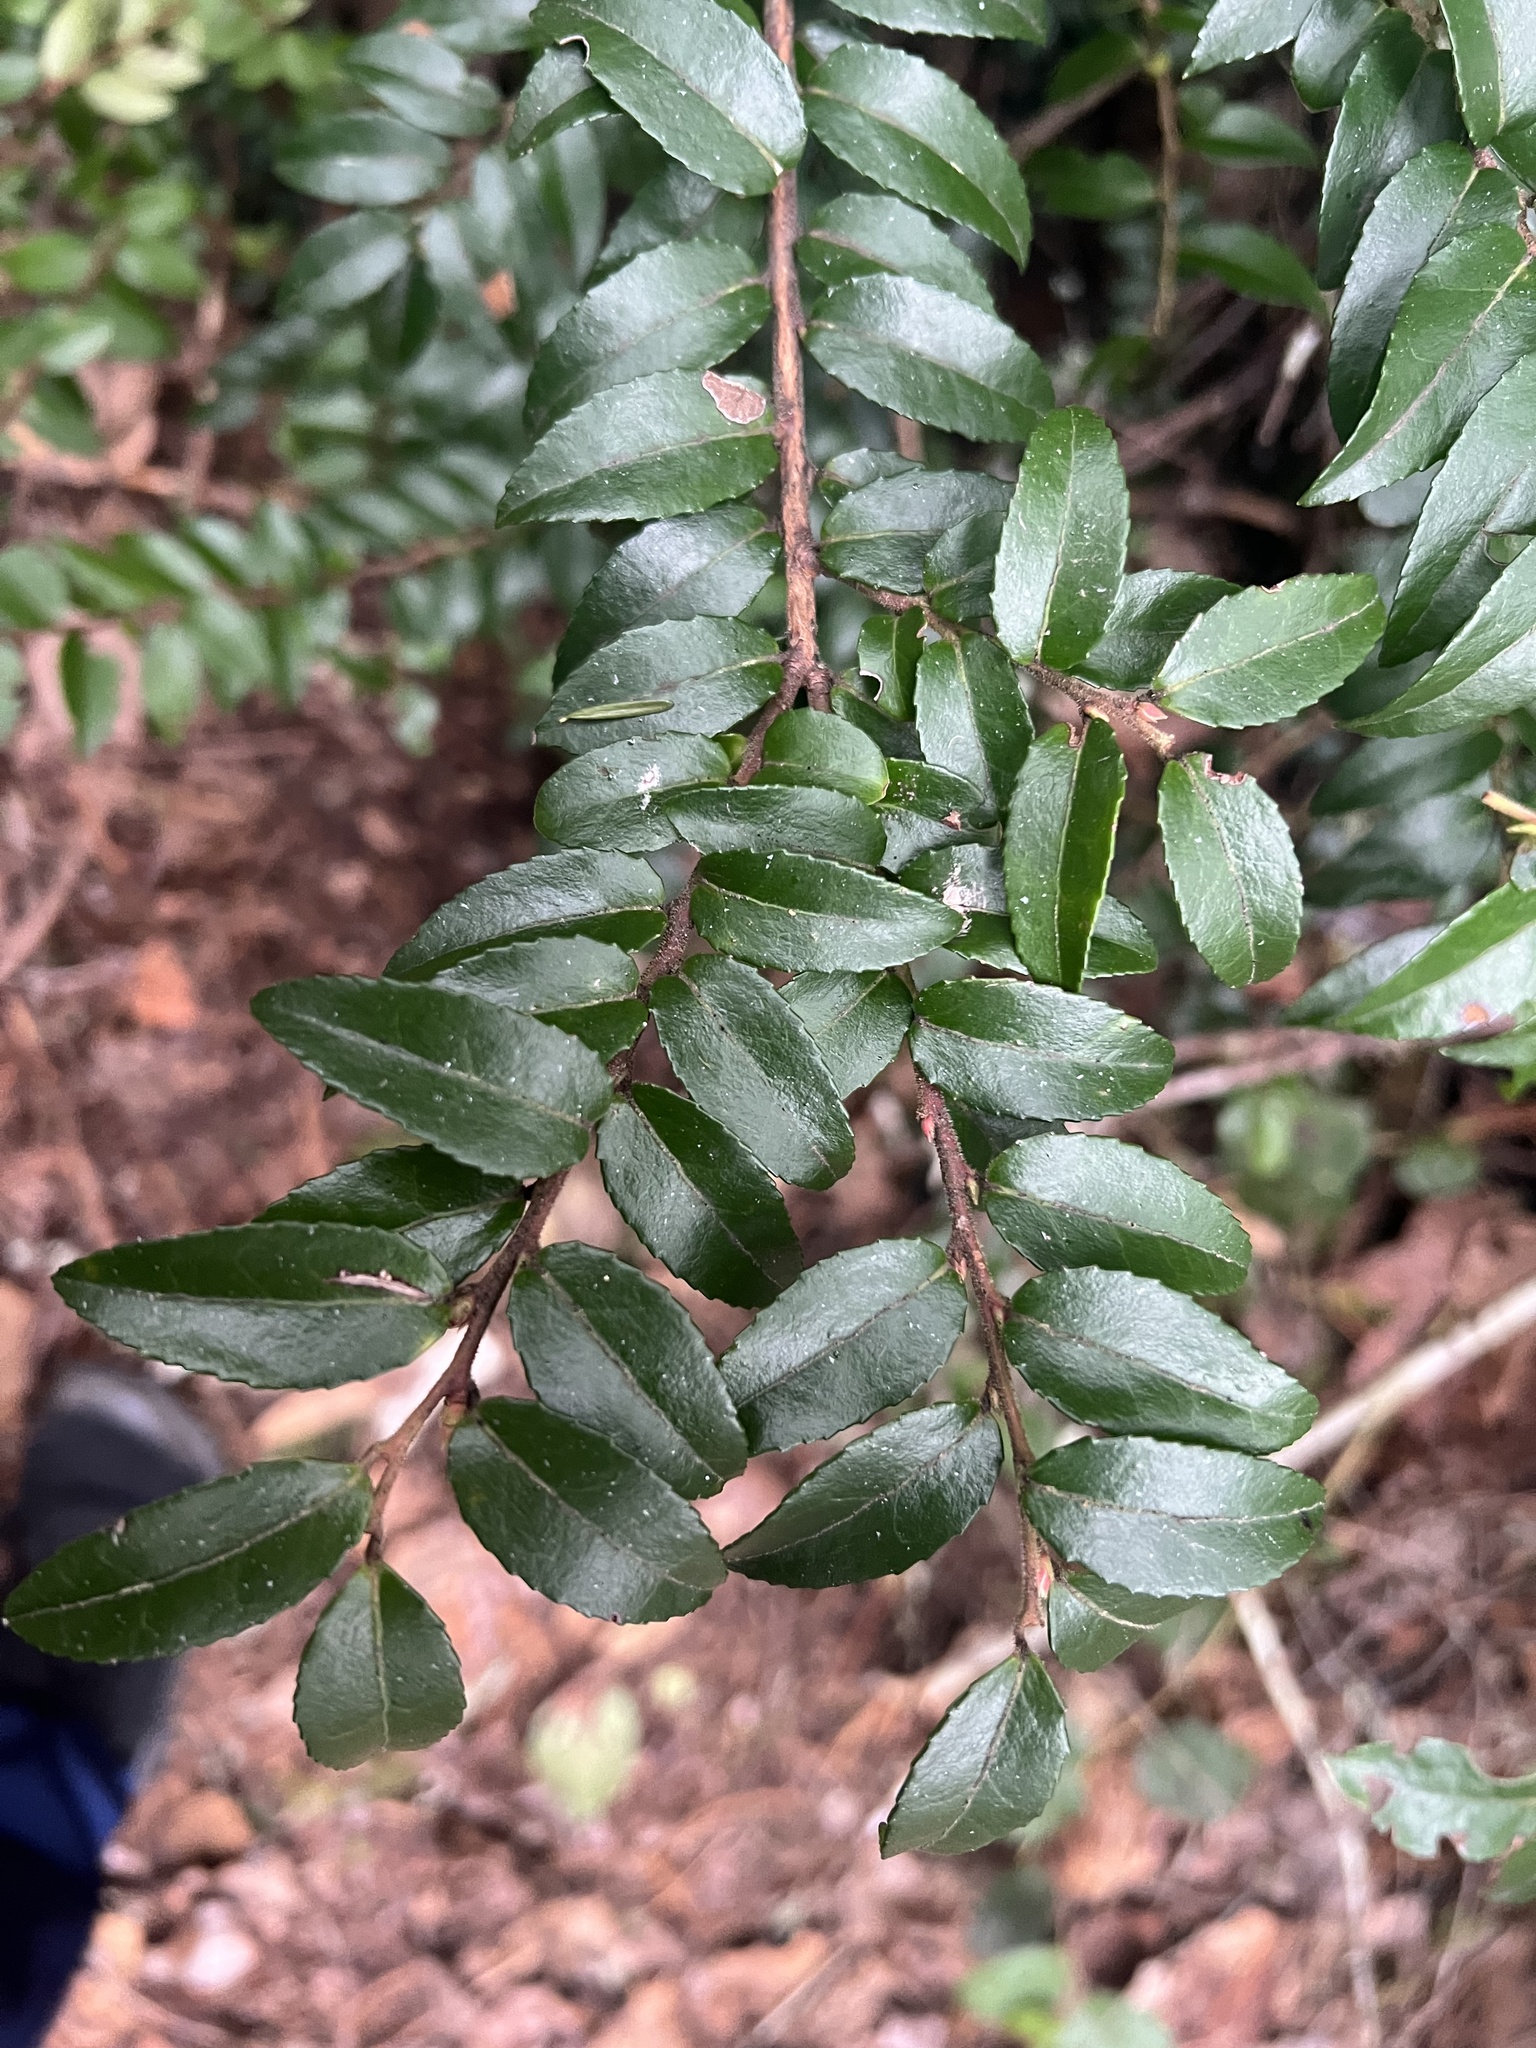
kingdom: Plantae
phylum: Tracheophyta
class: Magnoliopsida
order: Ericales
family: Ericaceae
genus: Vaccinium
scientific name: Vaccinium ovatum
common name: California-huckleberry
